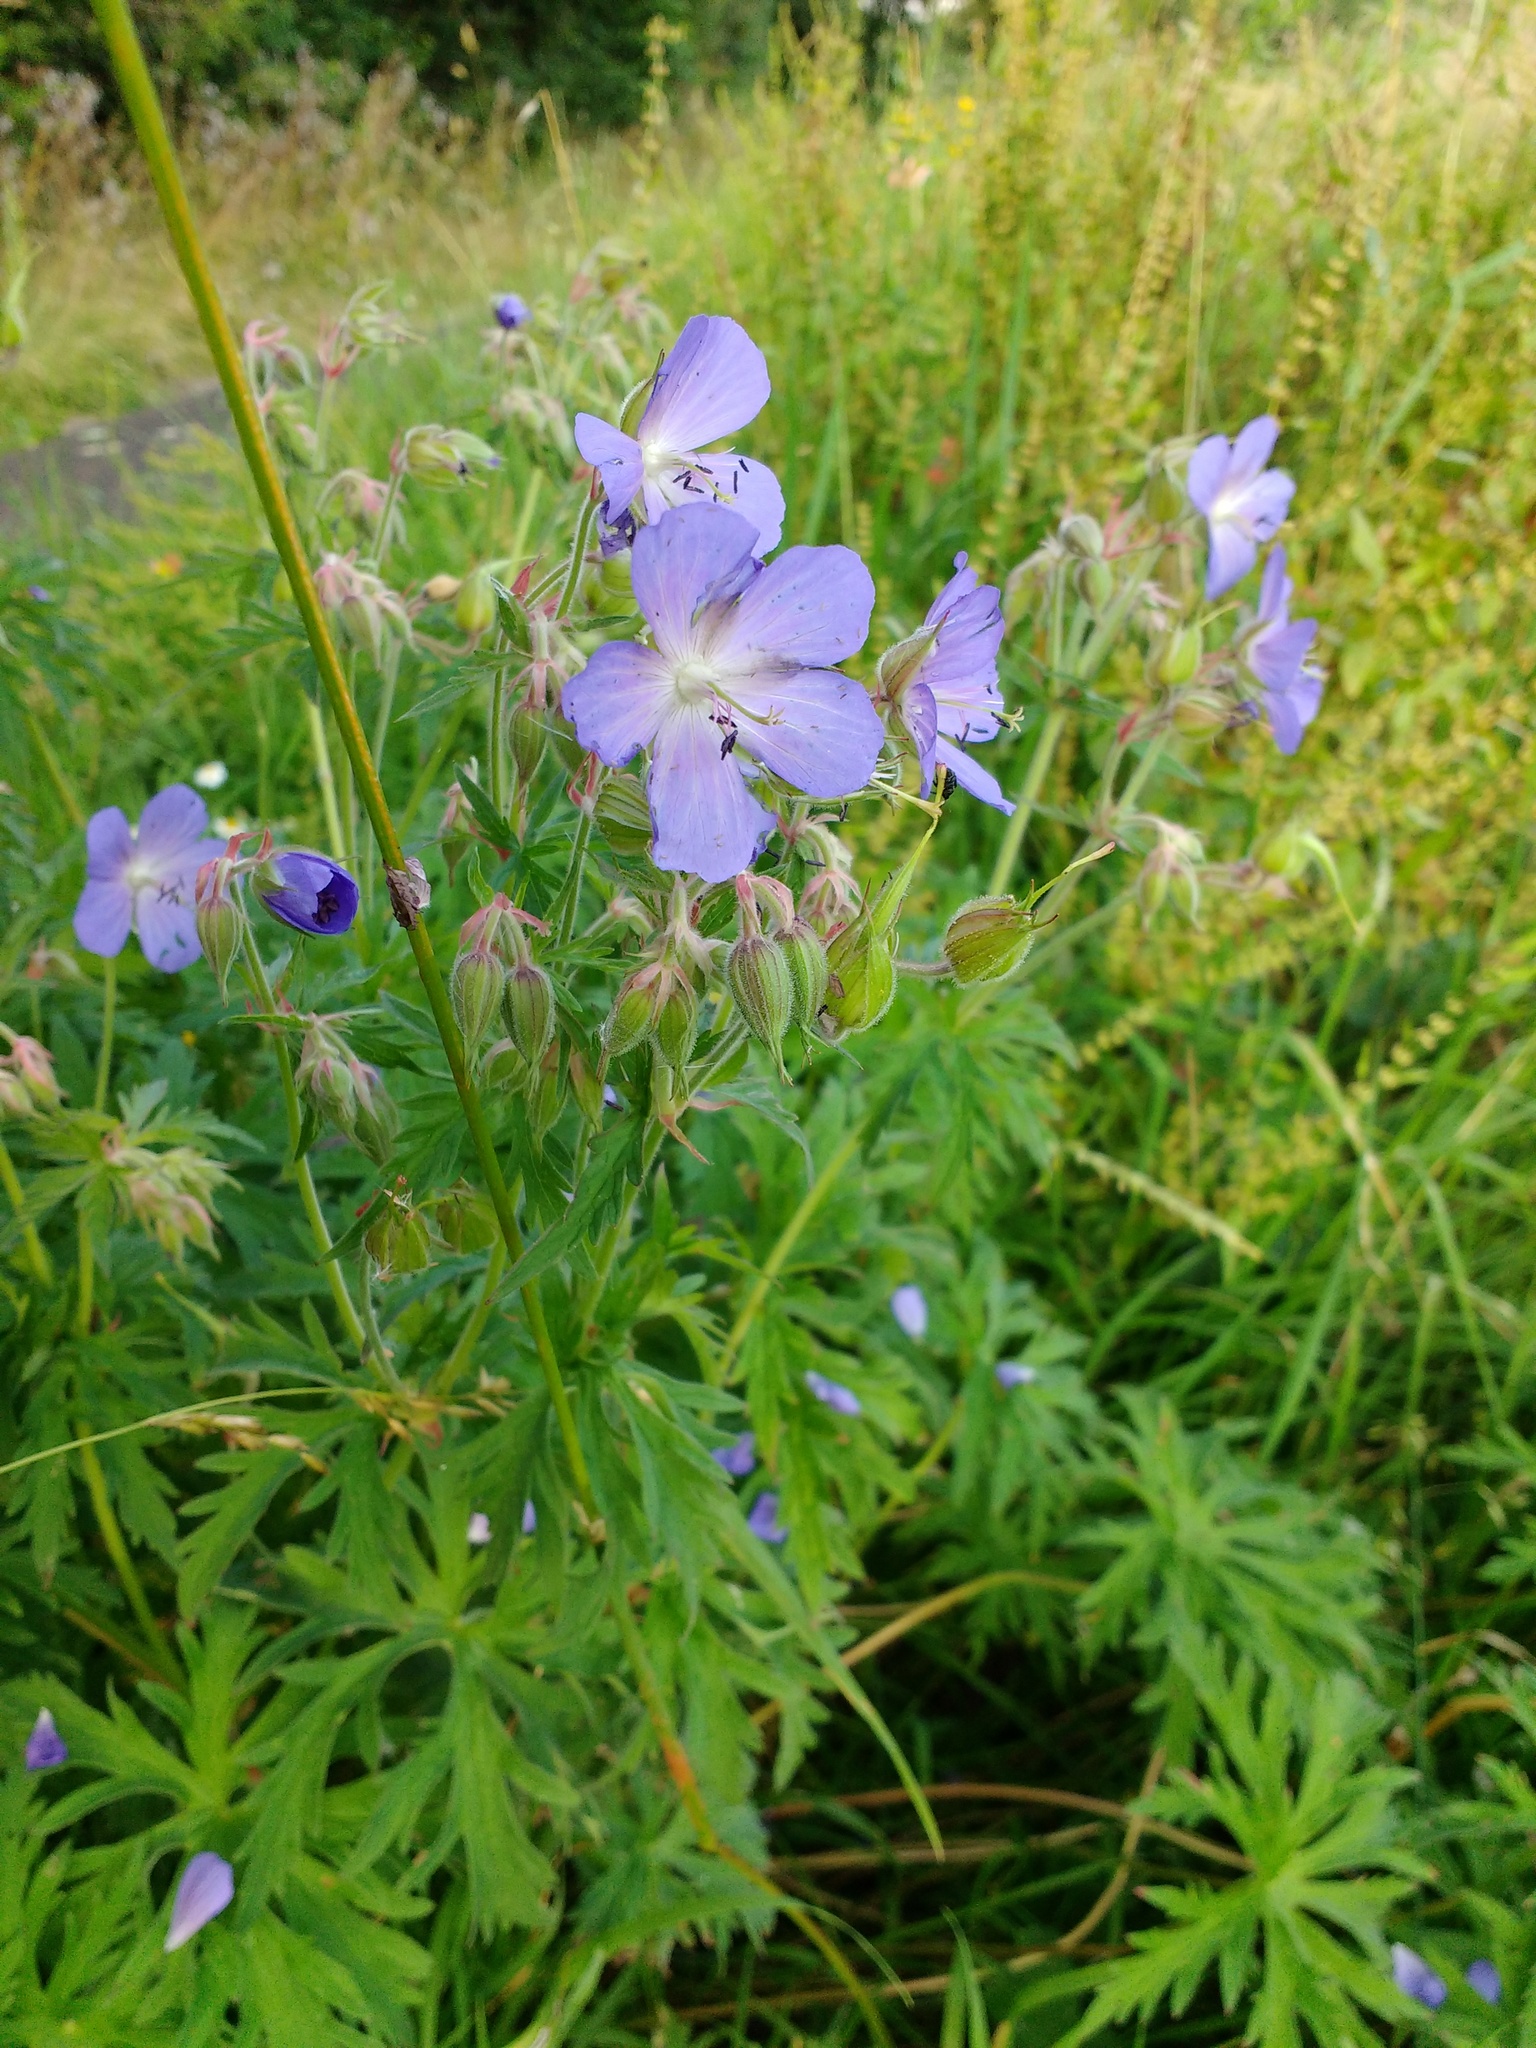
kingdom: Plantae
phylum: Tracheophyta
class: Magnoliopsida
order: Geraniales
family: Geraniaceae
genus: Geranium
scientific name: Geranium pratense
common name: Meadow crane's-bill
